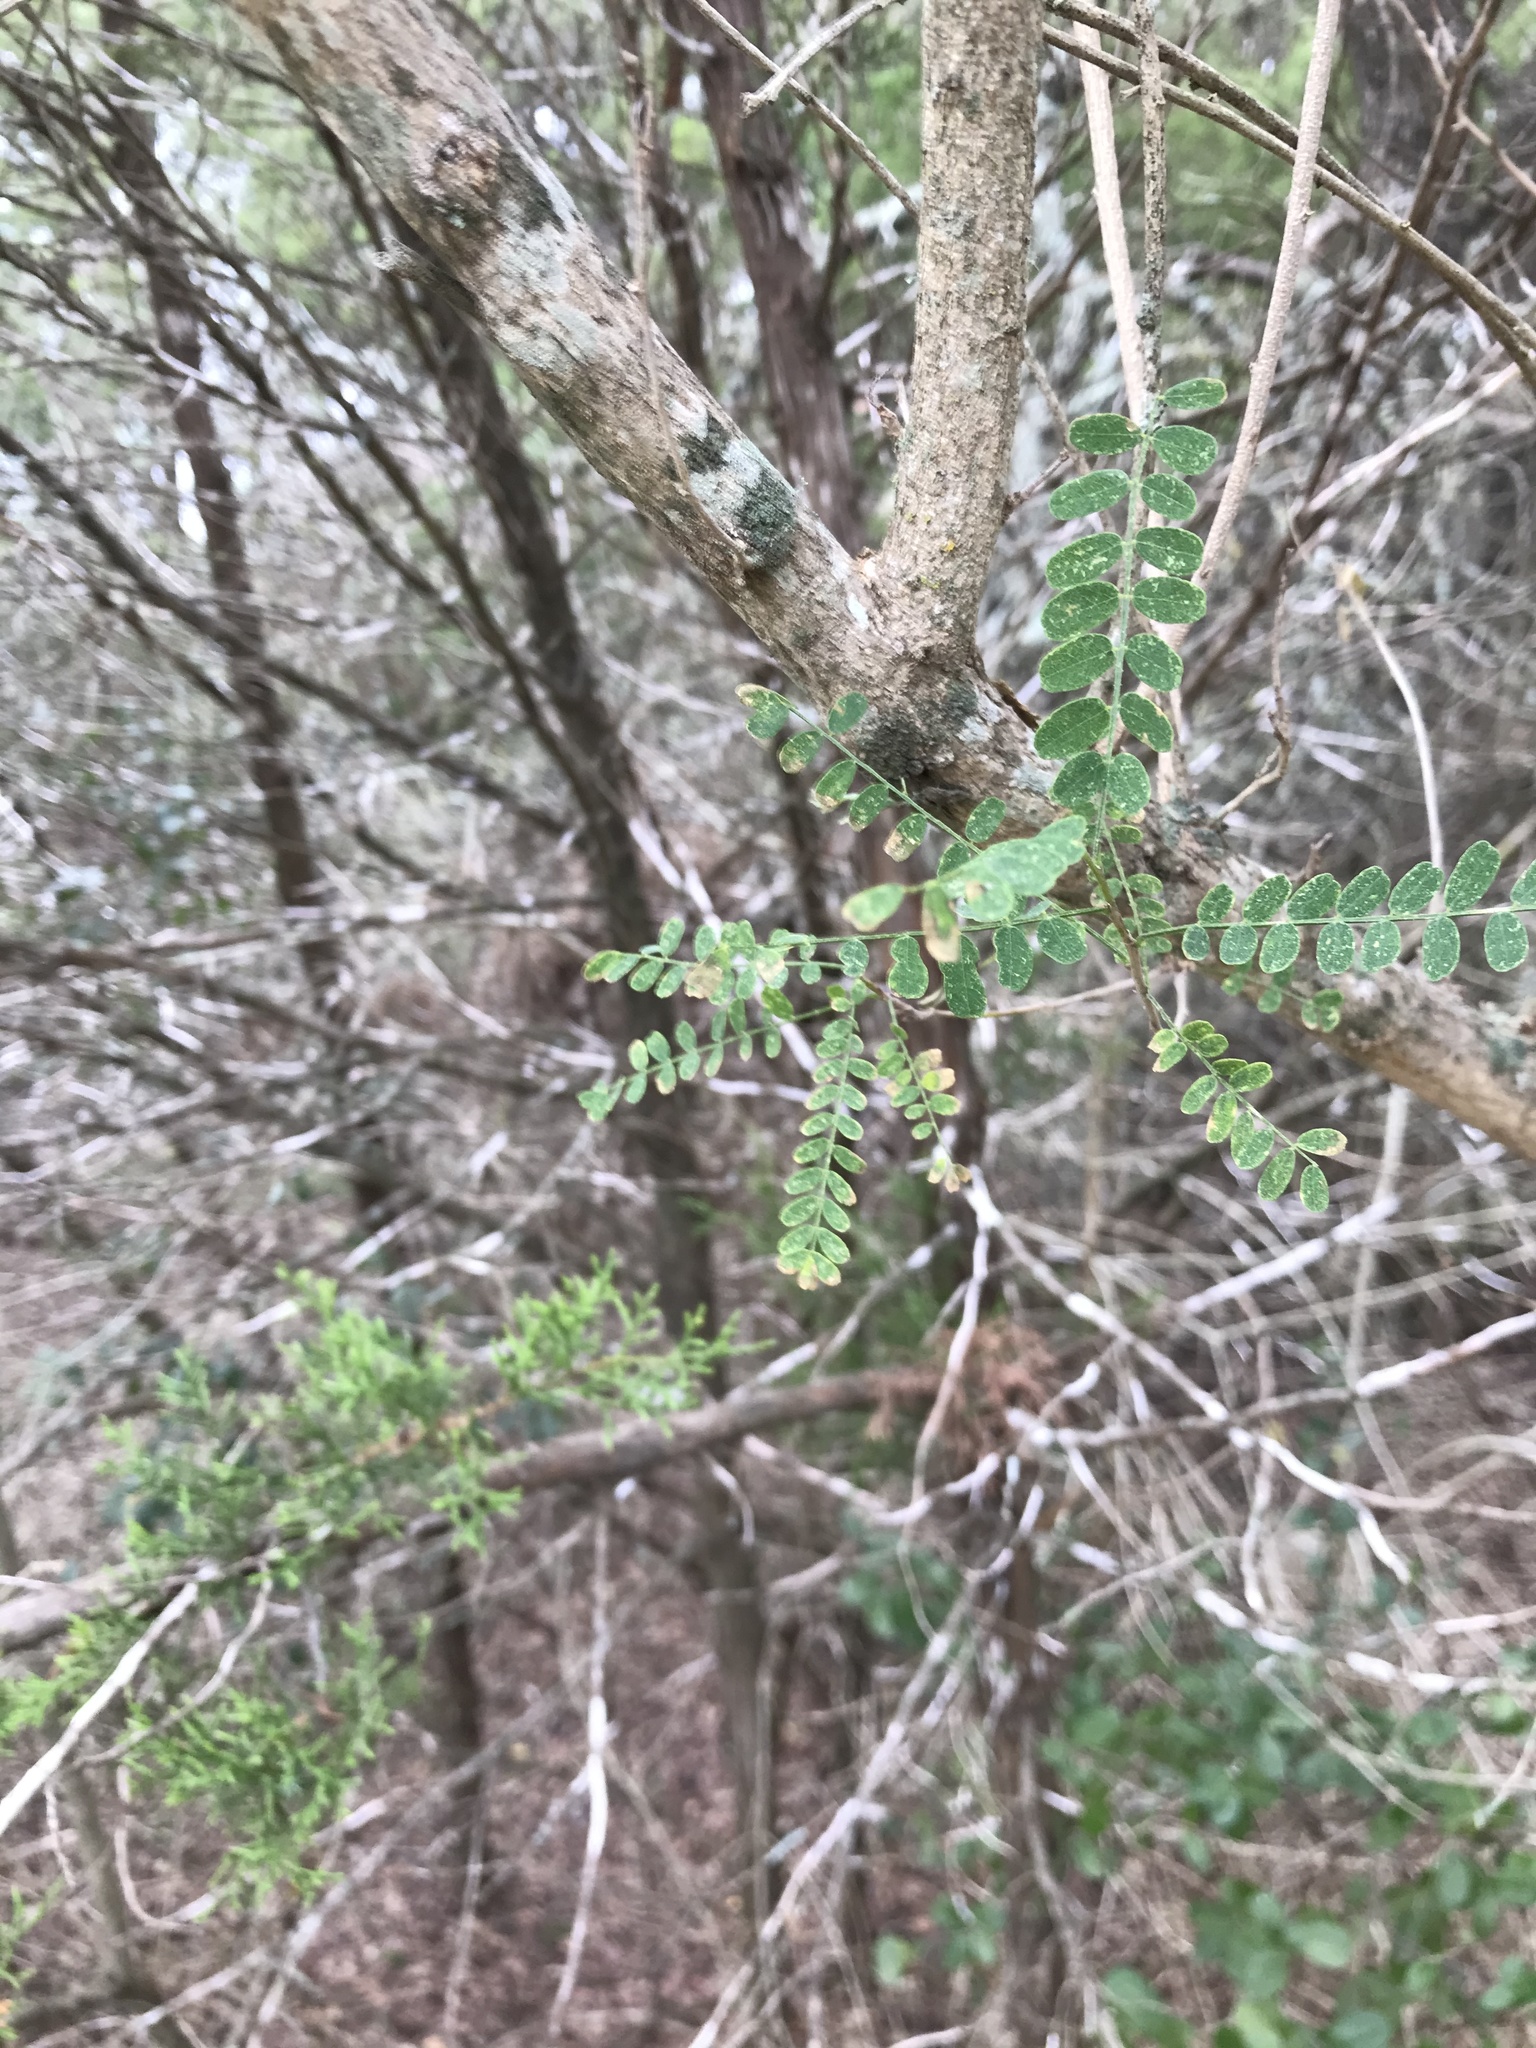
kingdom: Plantae
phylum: Tracheophyta
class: Magnoliopsida
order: Fabales
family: Fabaceae
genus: Eysenhardtia
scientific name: Eysenhardtia texana
